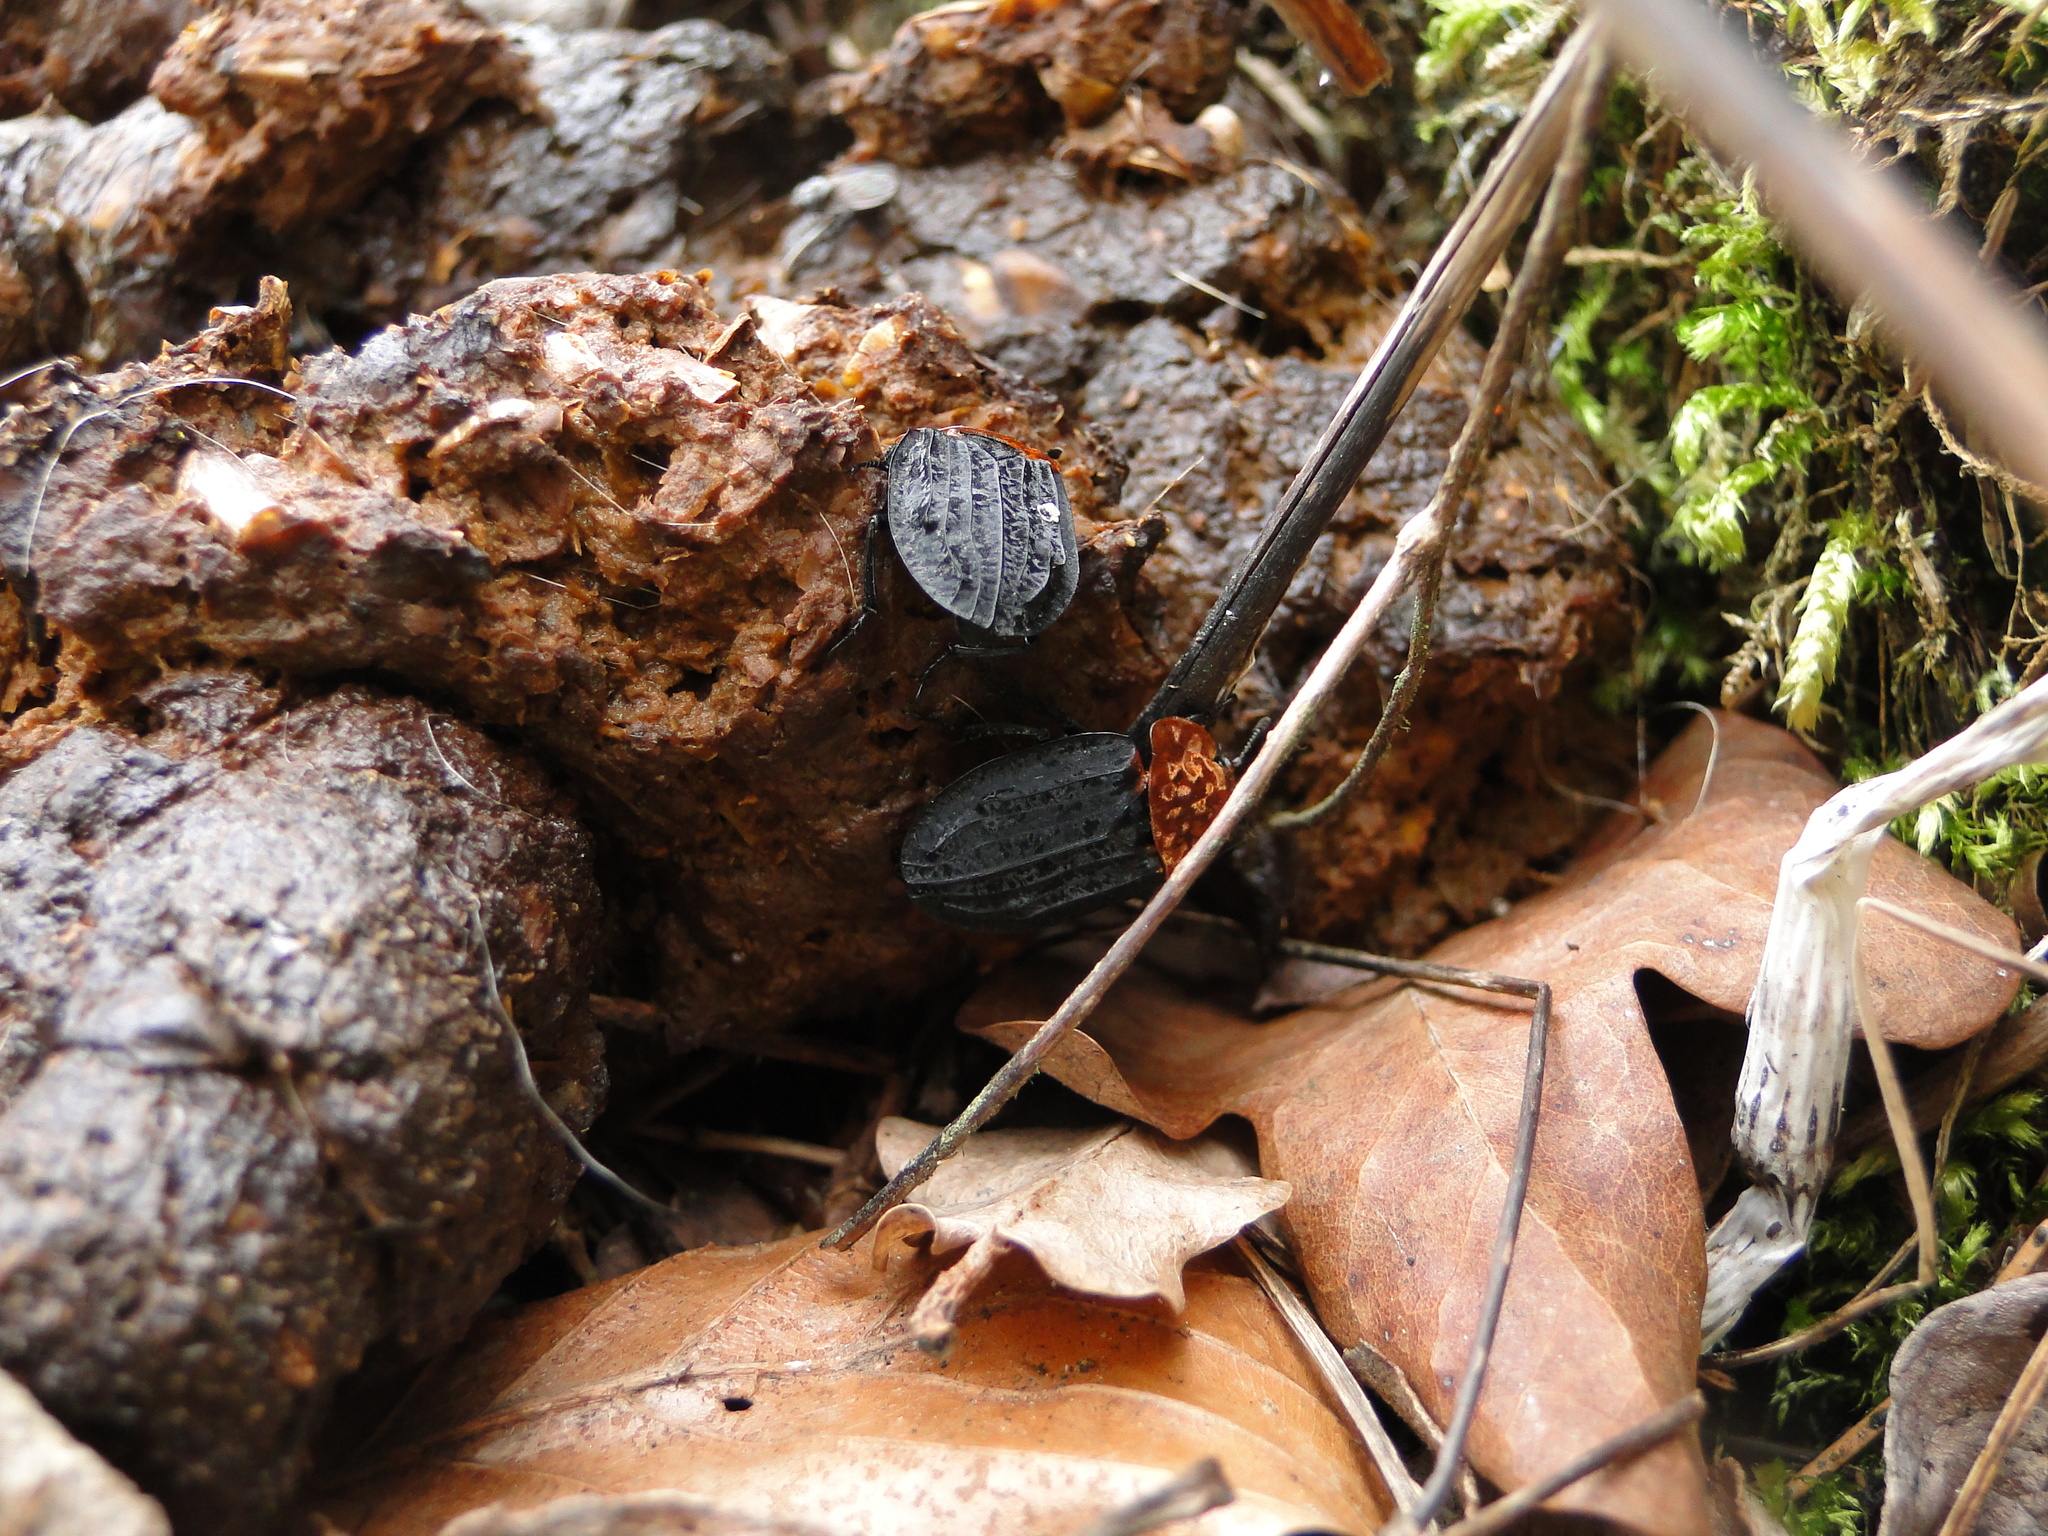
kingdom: Animalia
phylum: Arthropoda
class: Insecta
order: Coleoptera
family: Staphylinidae
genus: Oiceoptoma
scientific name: Oiceoptoma thoracicum
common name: Red-breasted carrion beetle
